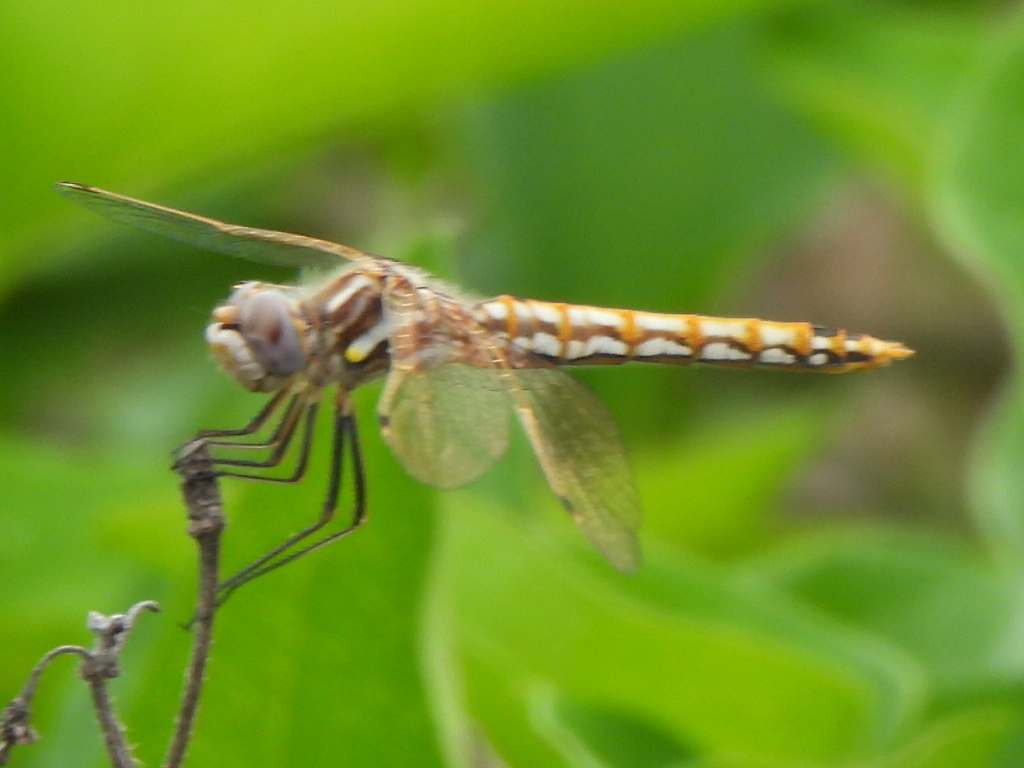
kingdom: Animalia
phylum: Arthropoda
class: Insecta
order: Odonata
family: Libellulidae
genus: Sympetrum
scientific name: Sympetrum corruptum
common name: Variegated meadowhawk
